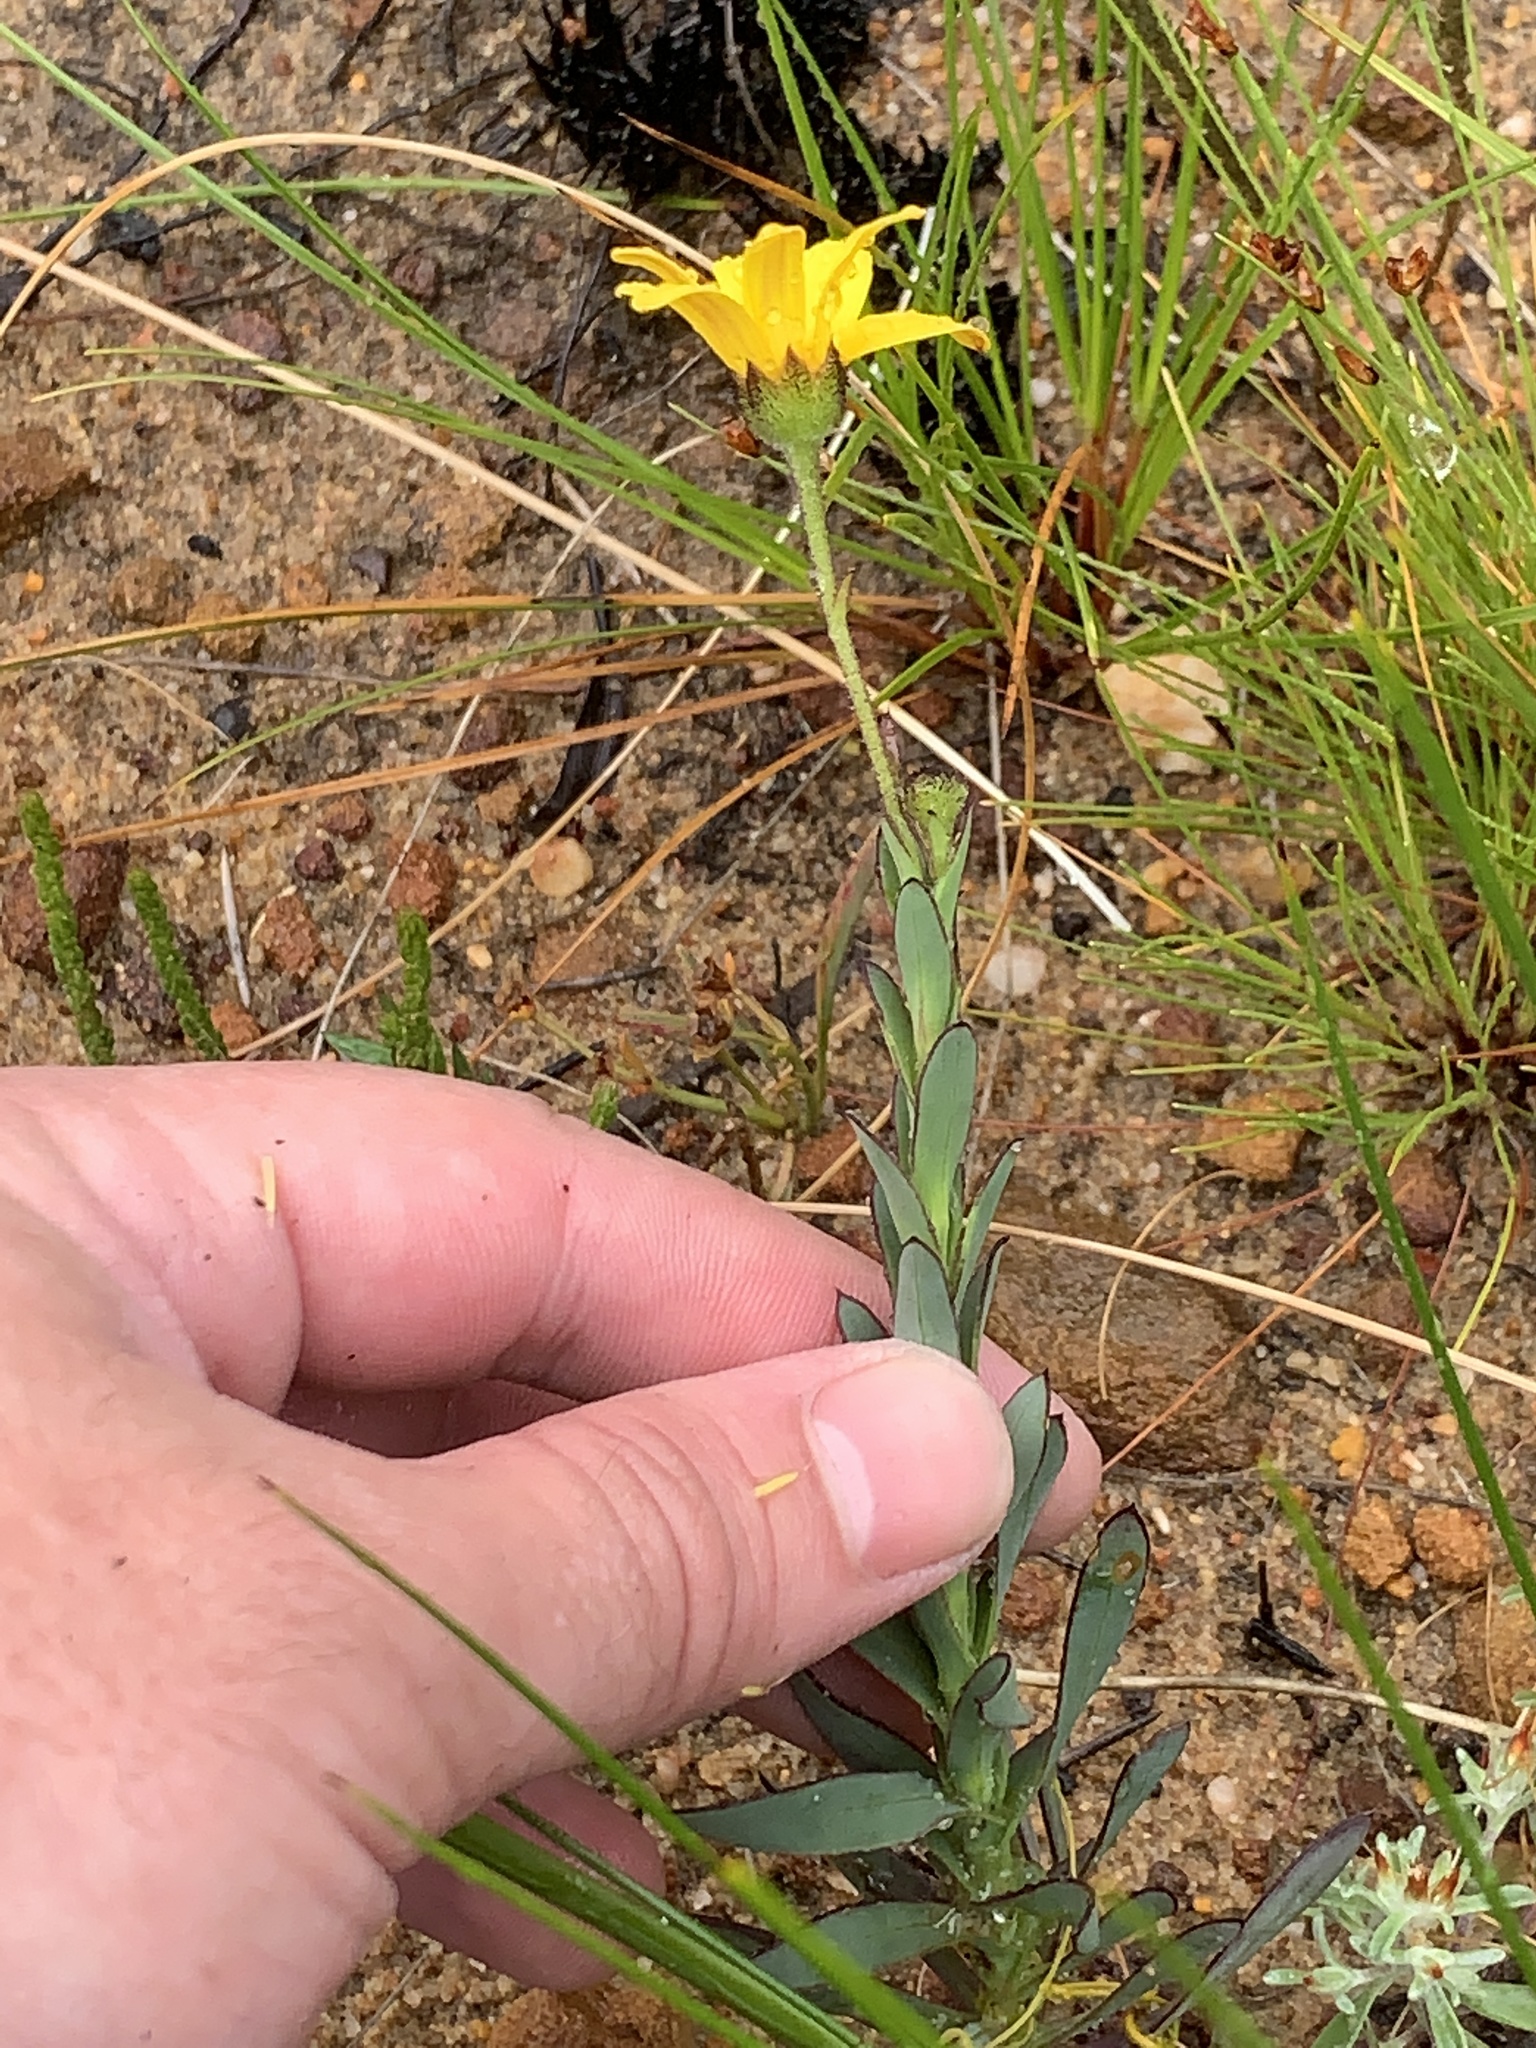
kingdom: Plantae
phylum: Tracheophyta
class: Magnoliopsida
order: Asterales
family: Asteraceae
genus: Osteospermum
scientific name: Osteospermum polygaloides
